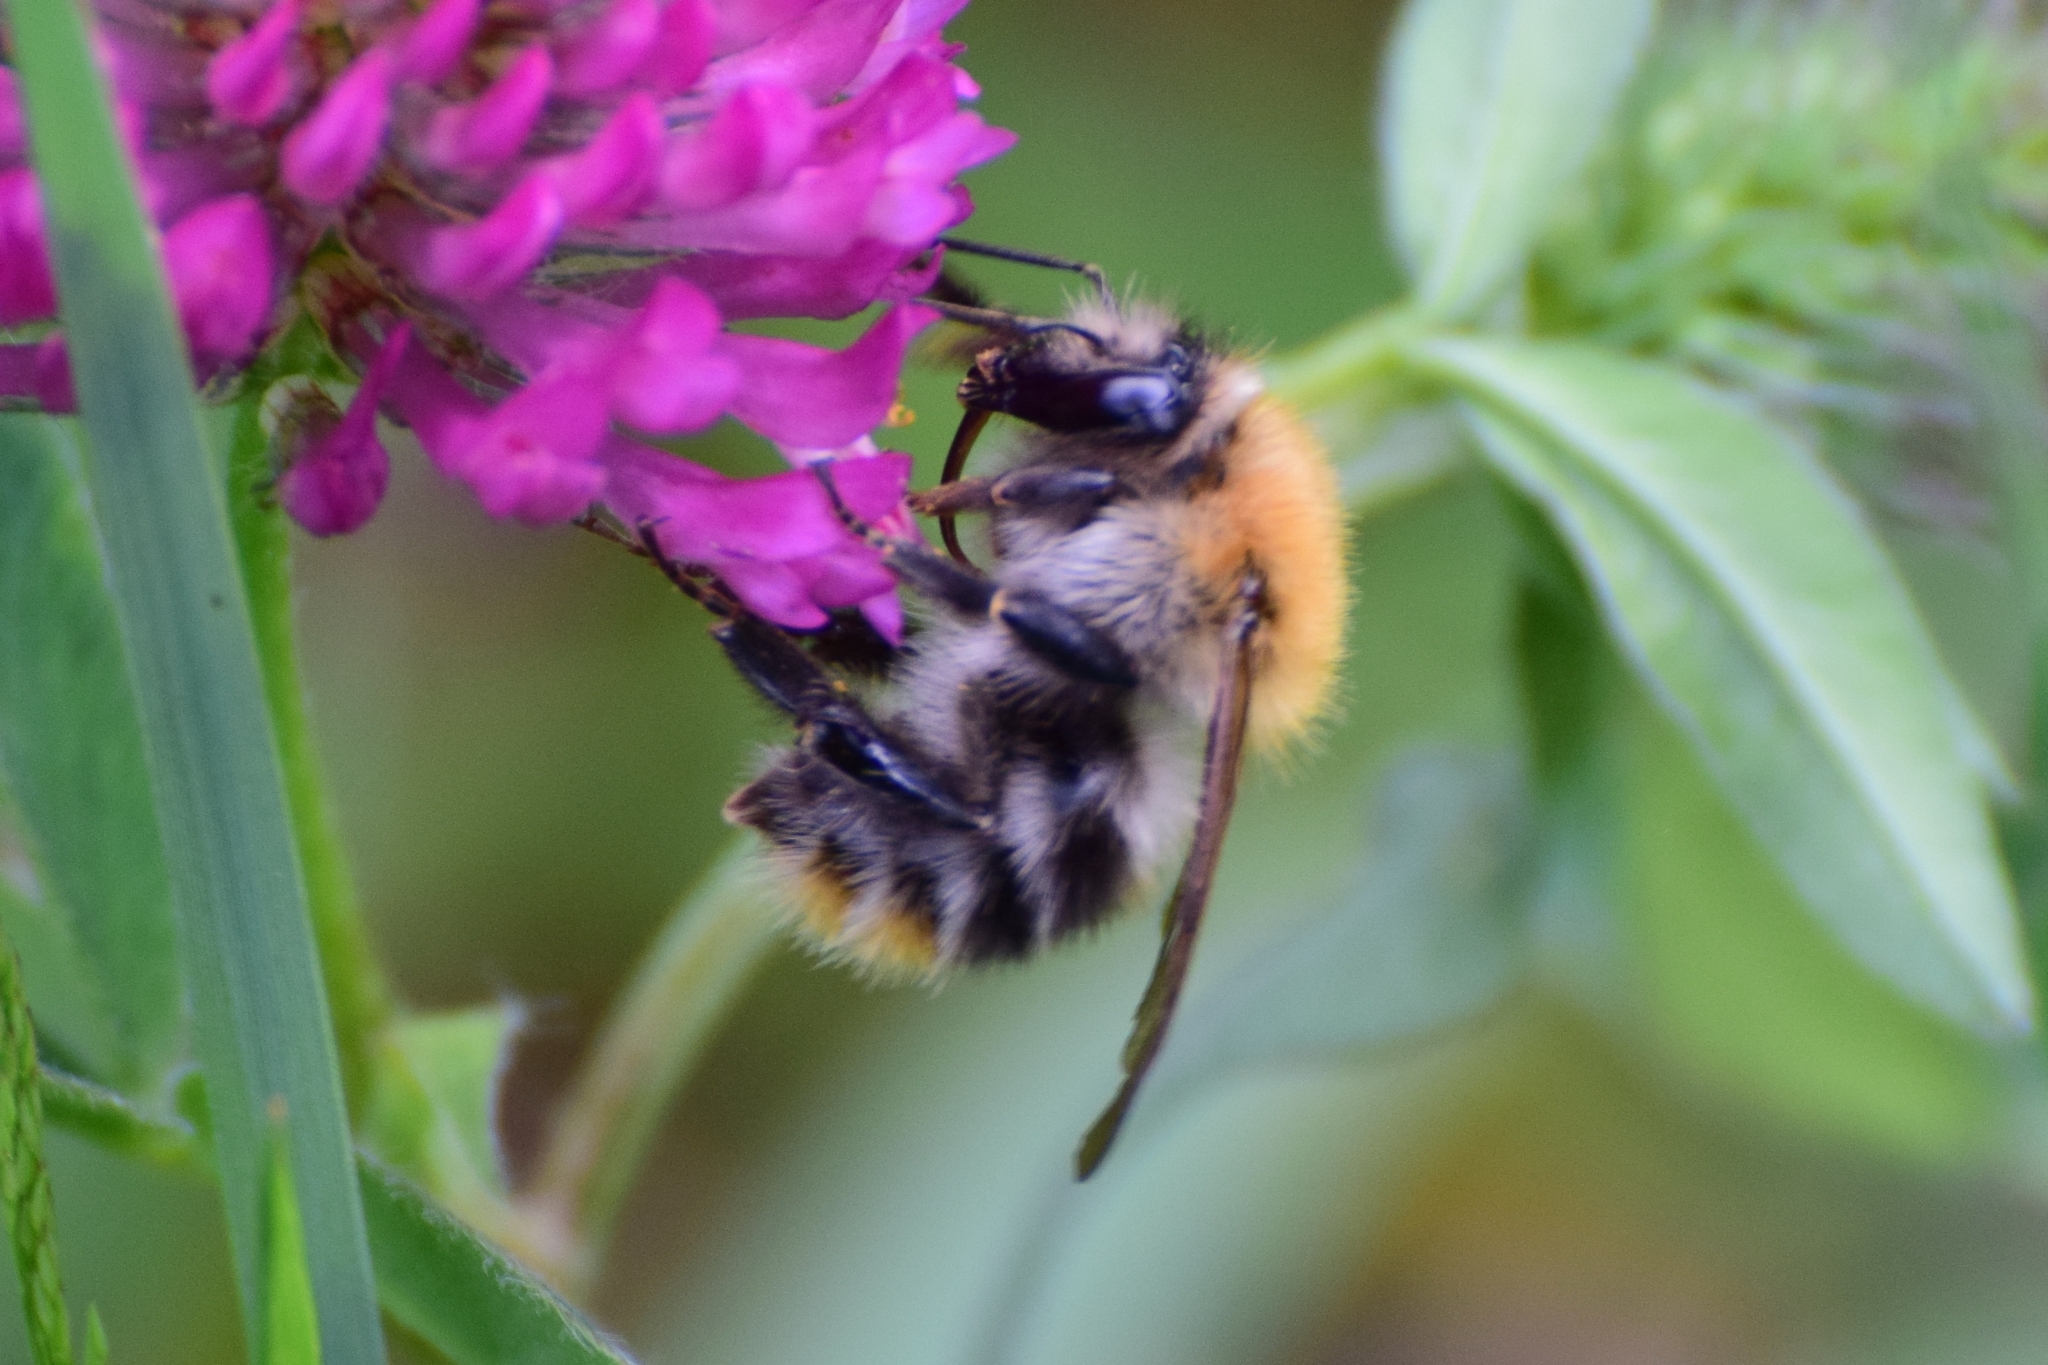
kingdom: Animalia
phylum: Arthropoda
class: Insecta
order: Hymenoptera
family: Apidae
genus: Bombus
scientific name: Bombus pascuorum
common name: Common carder bee
